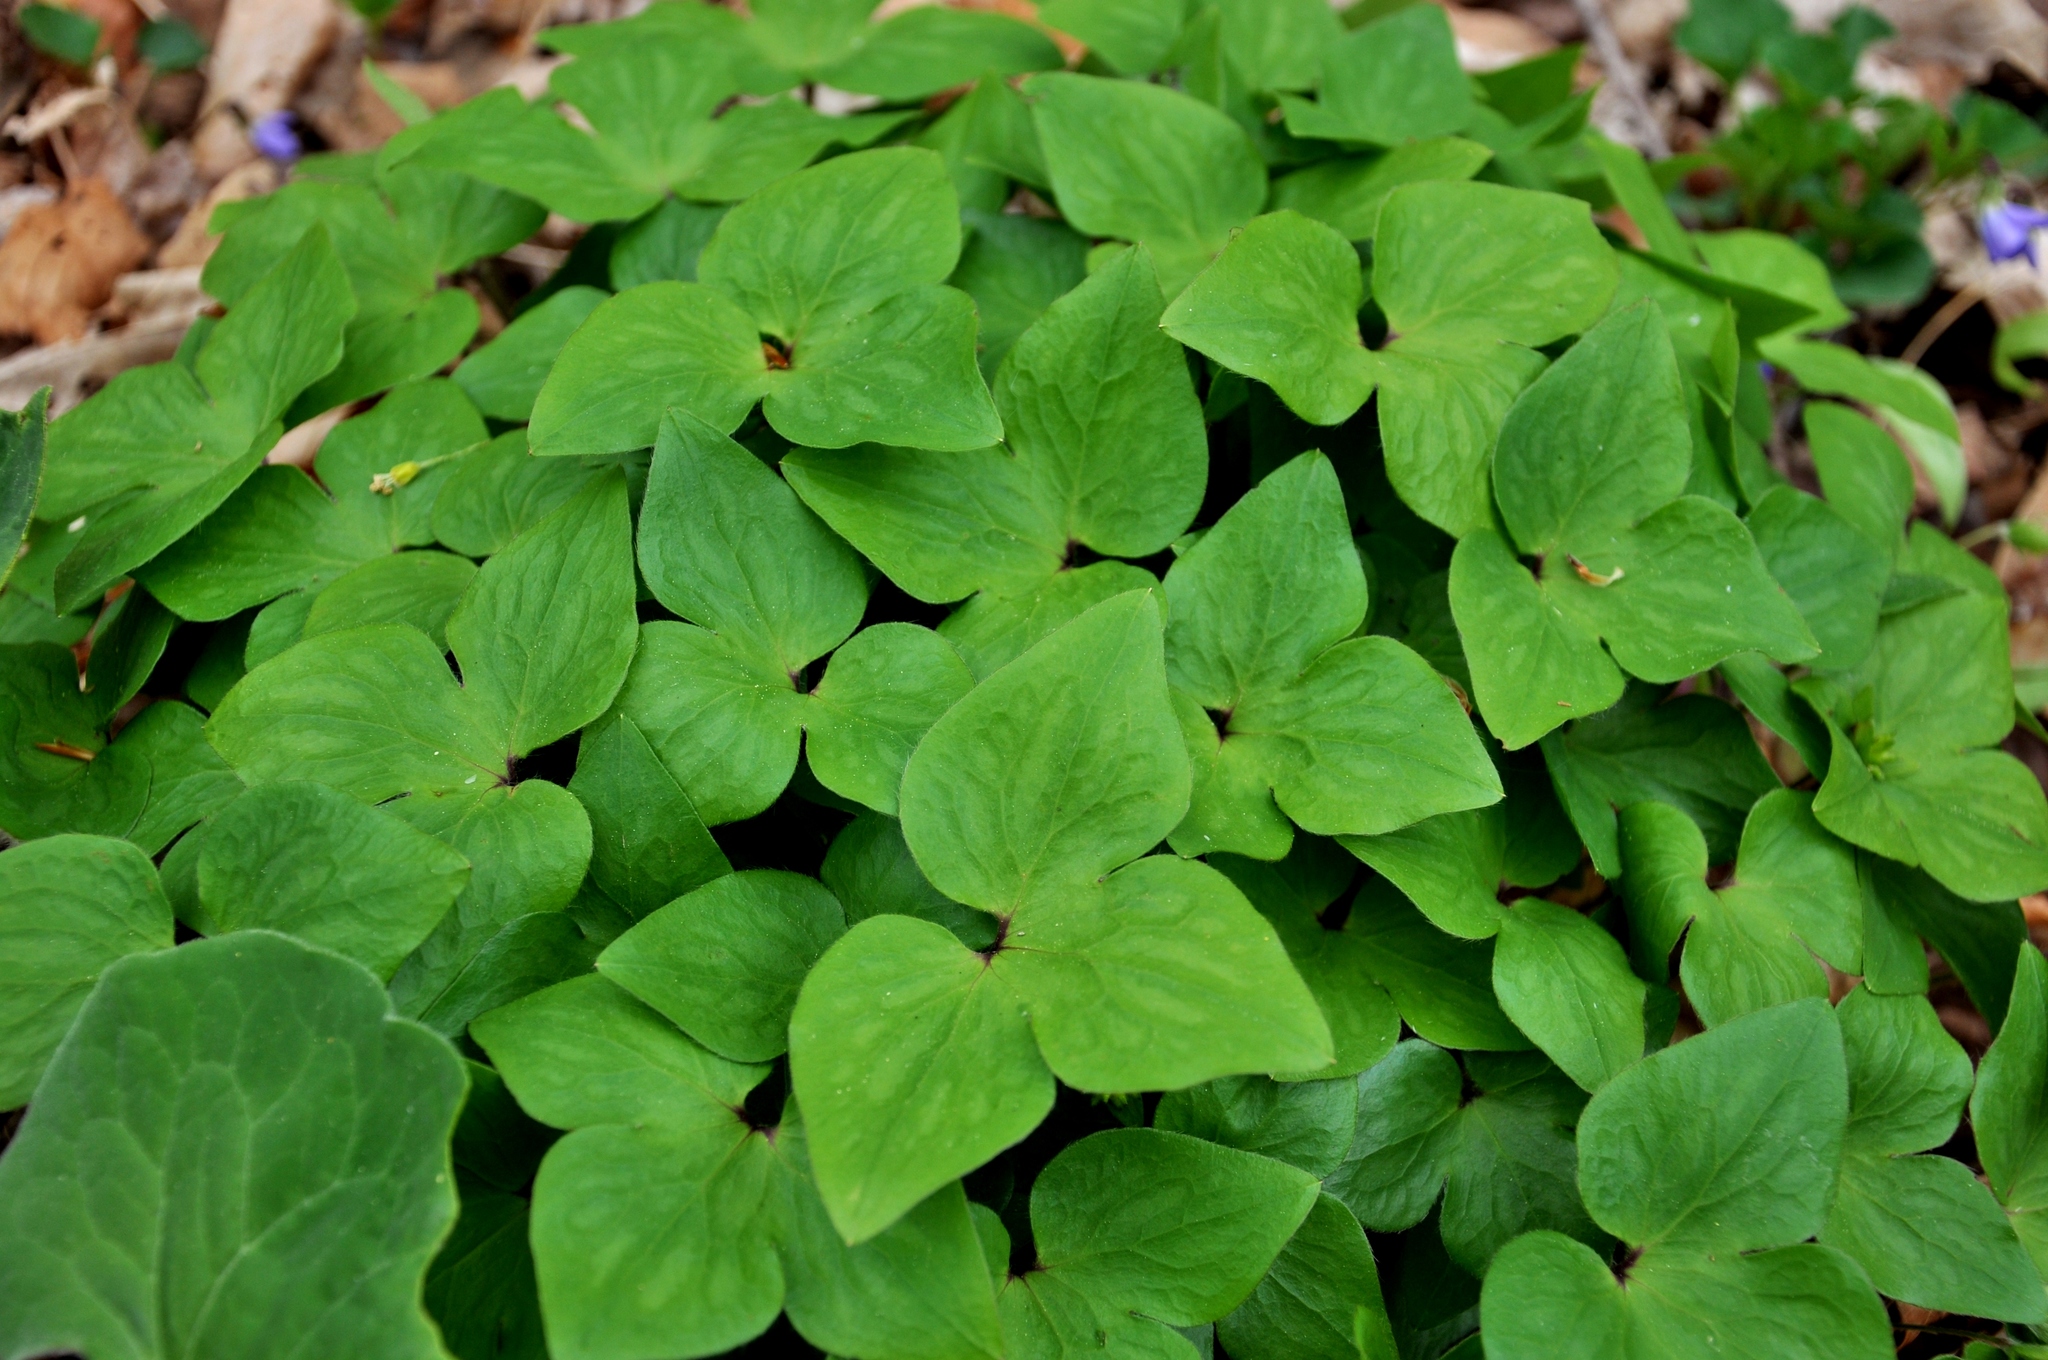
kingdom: Plantae
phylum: Tracheophyta
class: Magnoliopsida
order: Ranunculales
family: Ranunculaceae
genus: Hepatica
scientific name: Hepatica acutiloba
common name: Sharp-lobed hepatica
